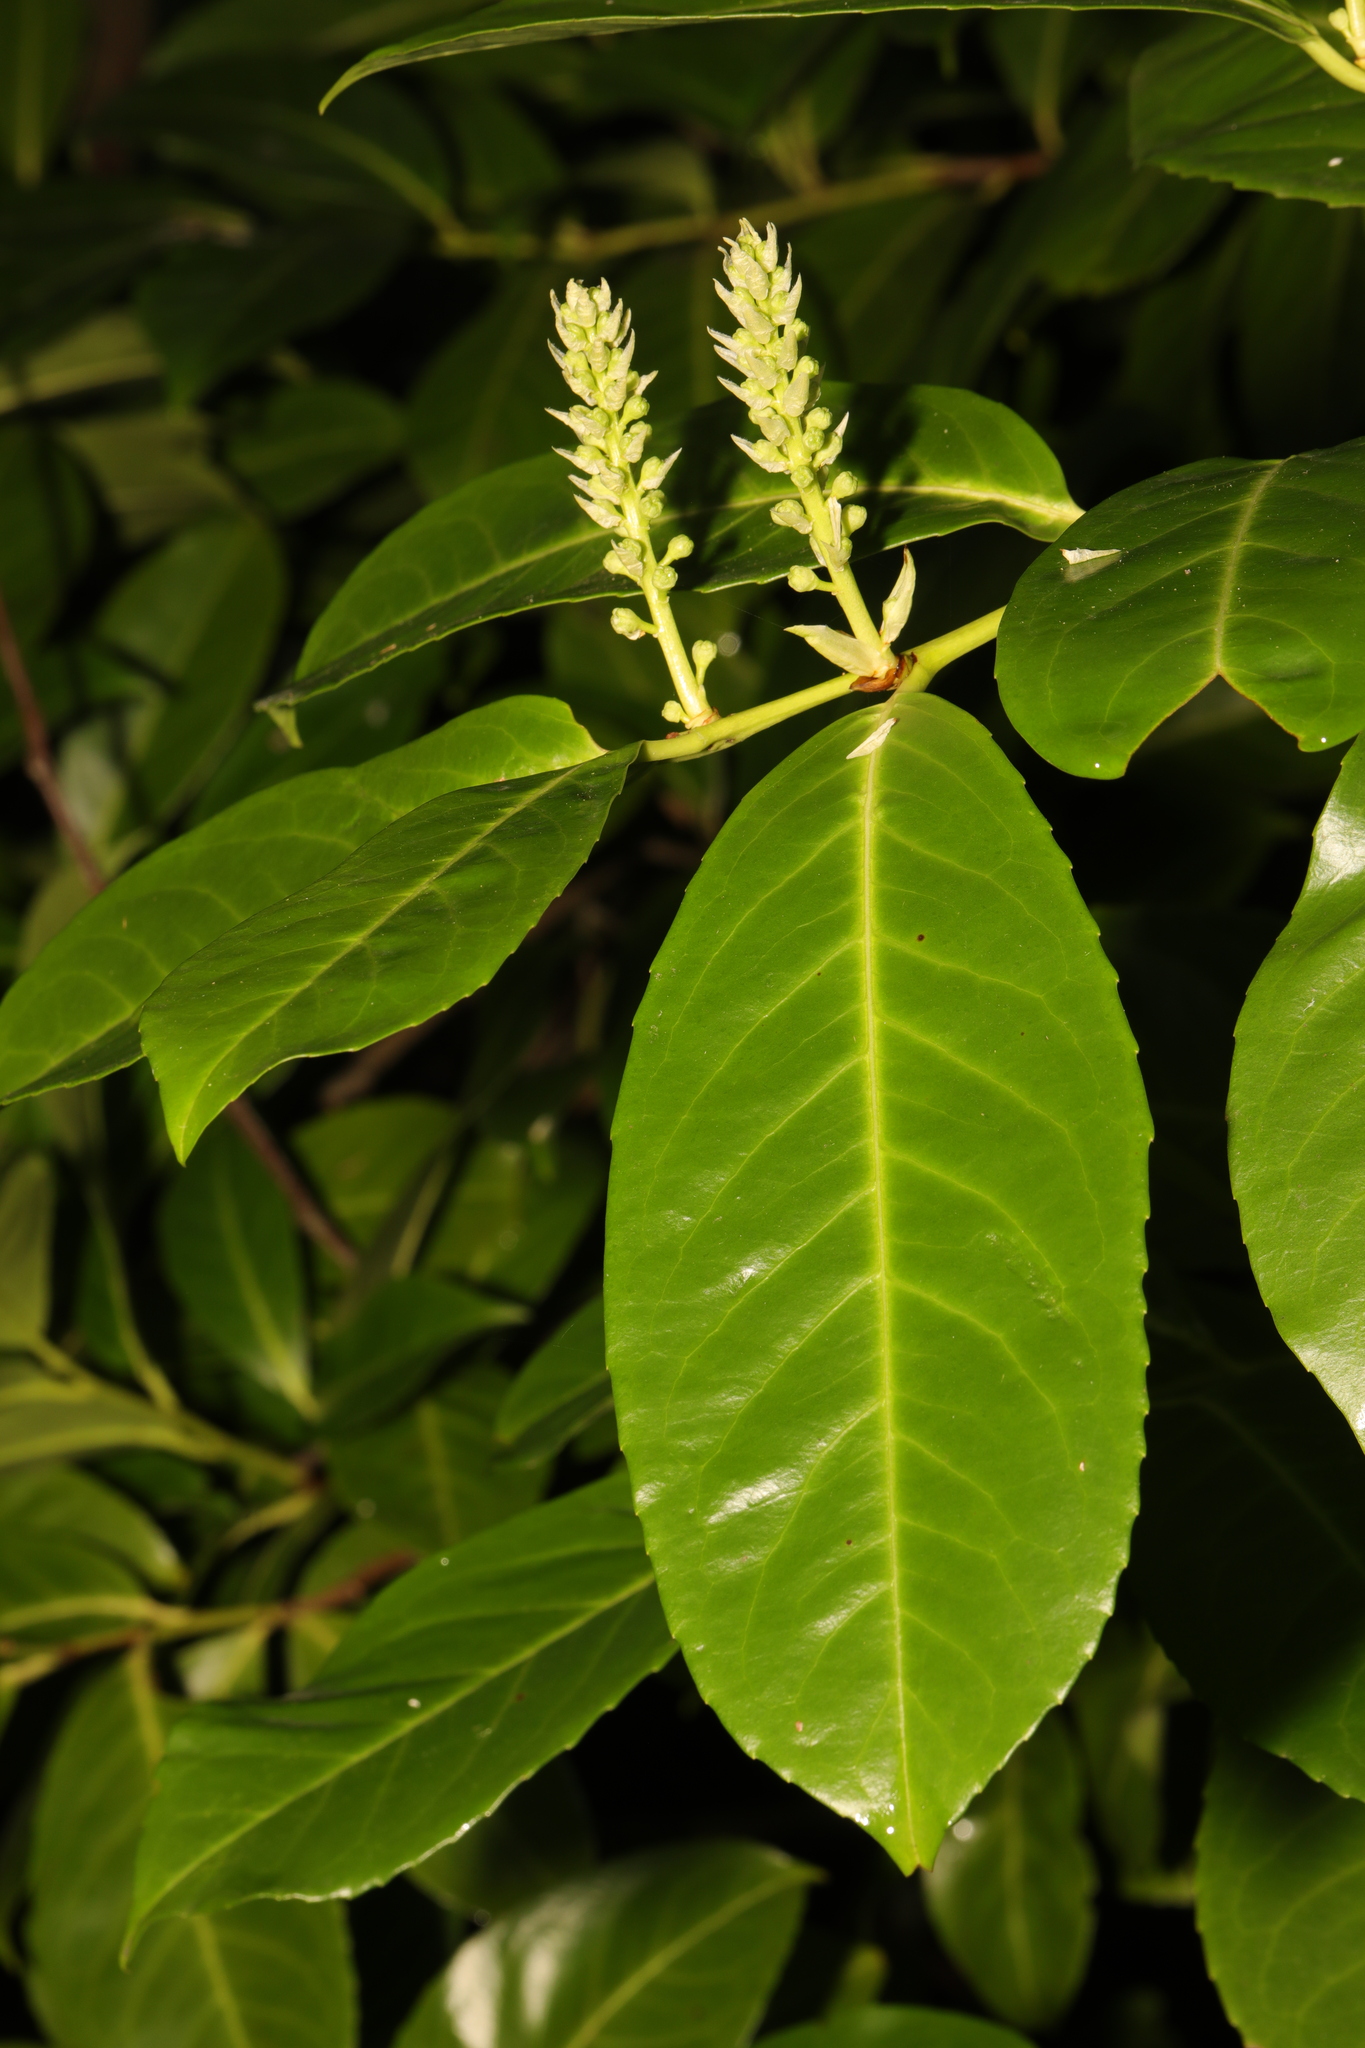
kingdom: Plantae
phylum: Tracheophyta
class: Magnoliopsida
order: Rosales
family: Rosaceae
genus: Prunus
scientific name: Prunus laurocerasus
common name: Cherry laurel
